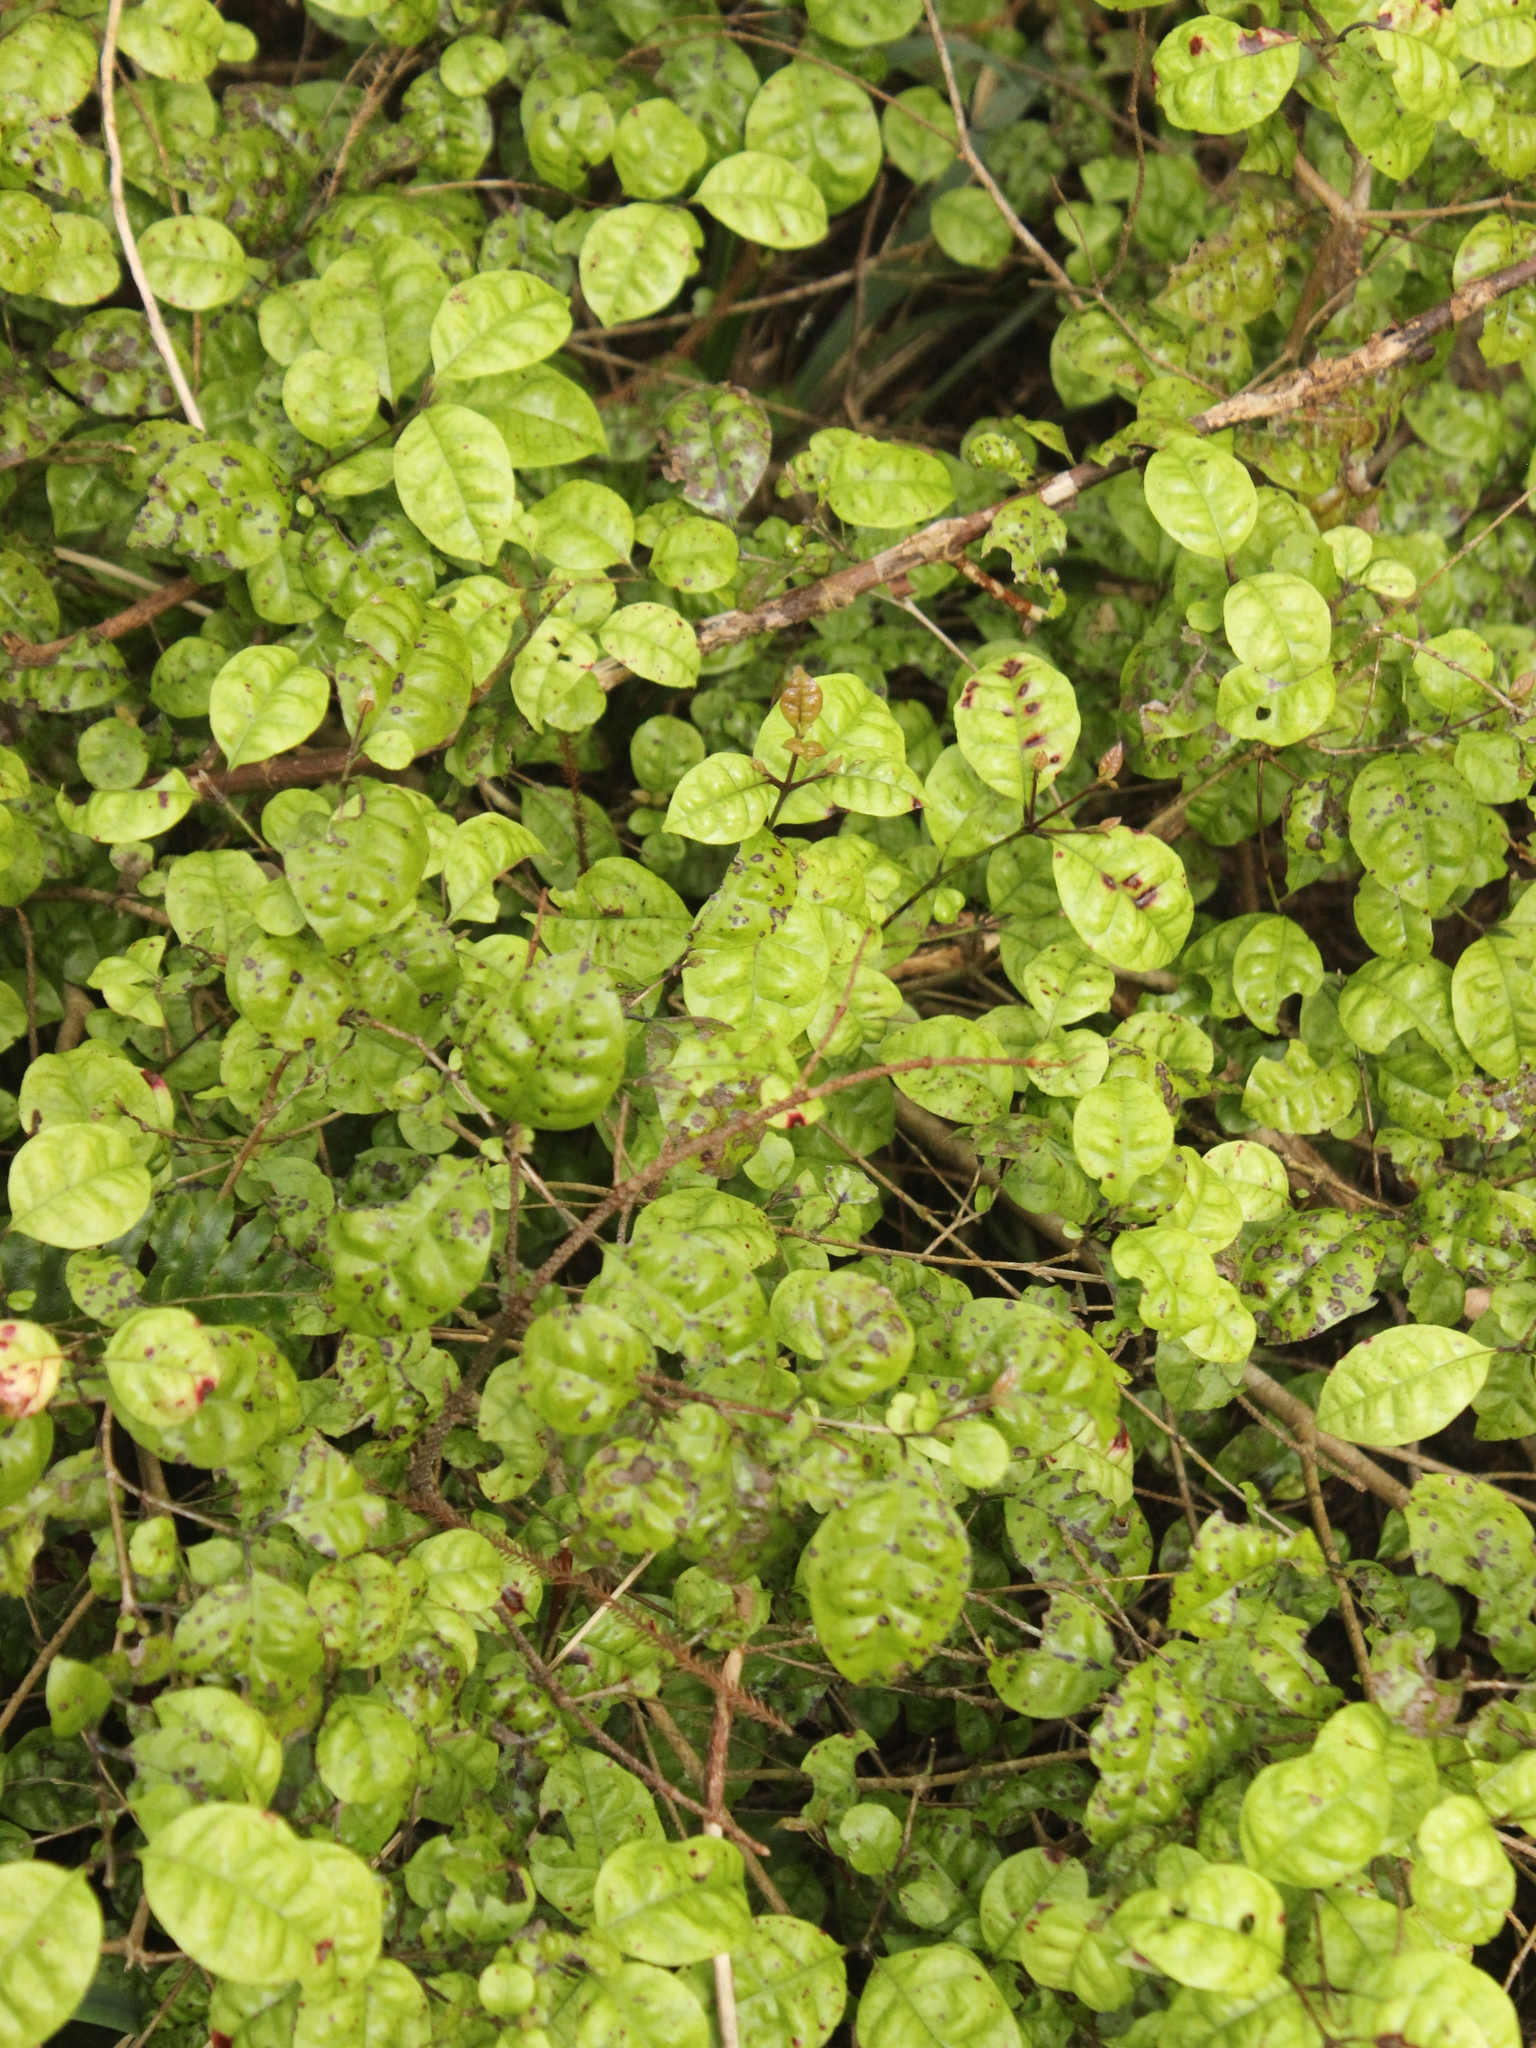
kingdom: Plantae
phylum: Tracheophyta
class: Magnoliopsida
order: Myrtales
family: Myrtaceae
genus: Lophomyrtus
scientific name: Lophomyrtus bullata
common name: Rama rama
